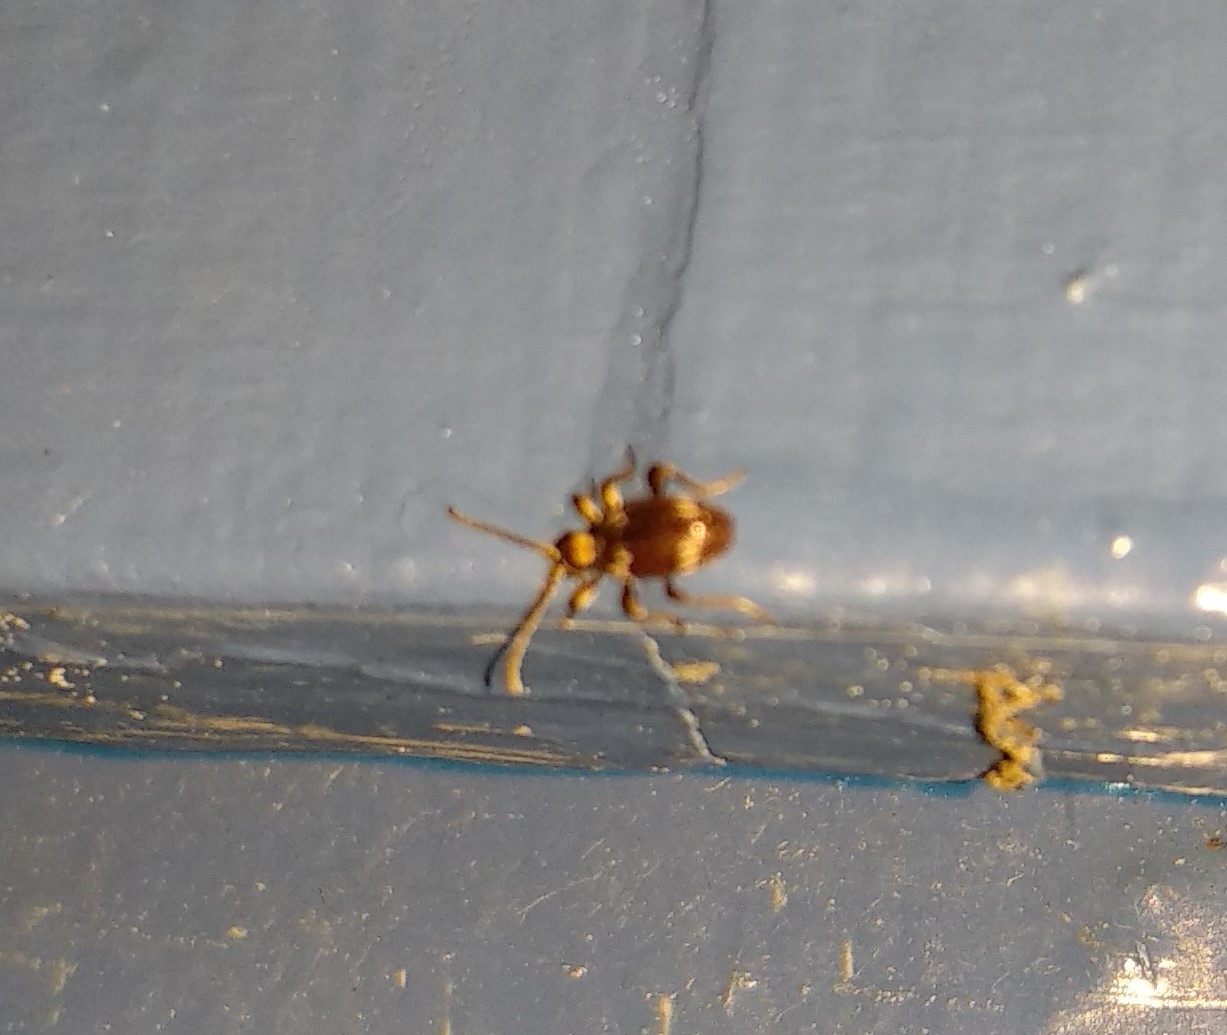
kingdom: Animalia
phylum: Arthropoda
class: Insecta
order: Coleoptera
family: Ptinidae
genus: Ptinus
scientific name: Ptinus raptor
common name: Eastern spider beetle
